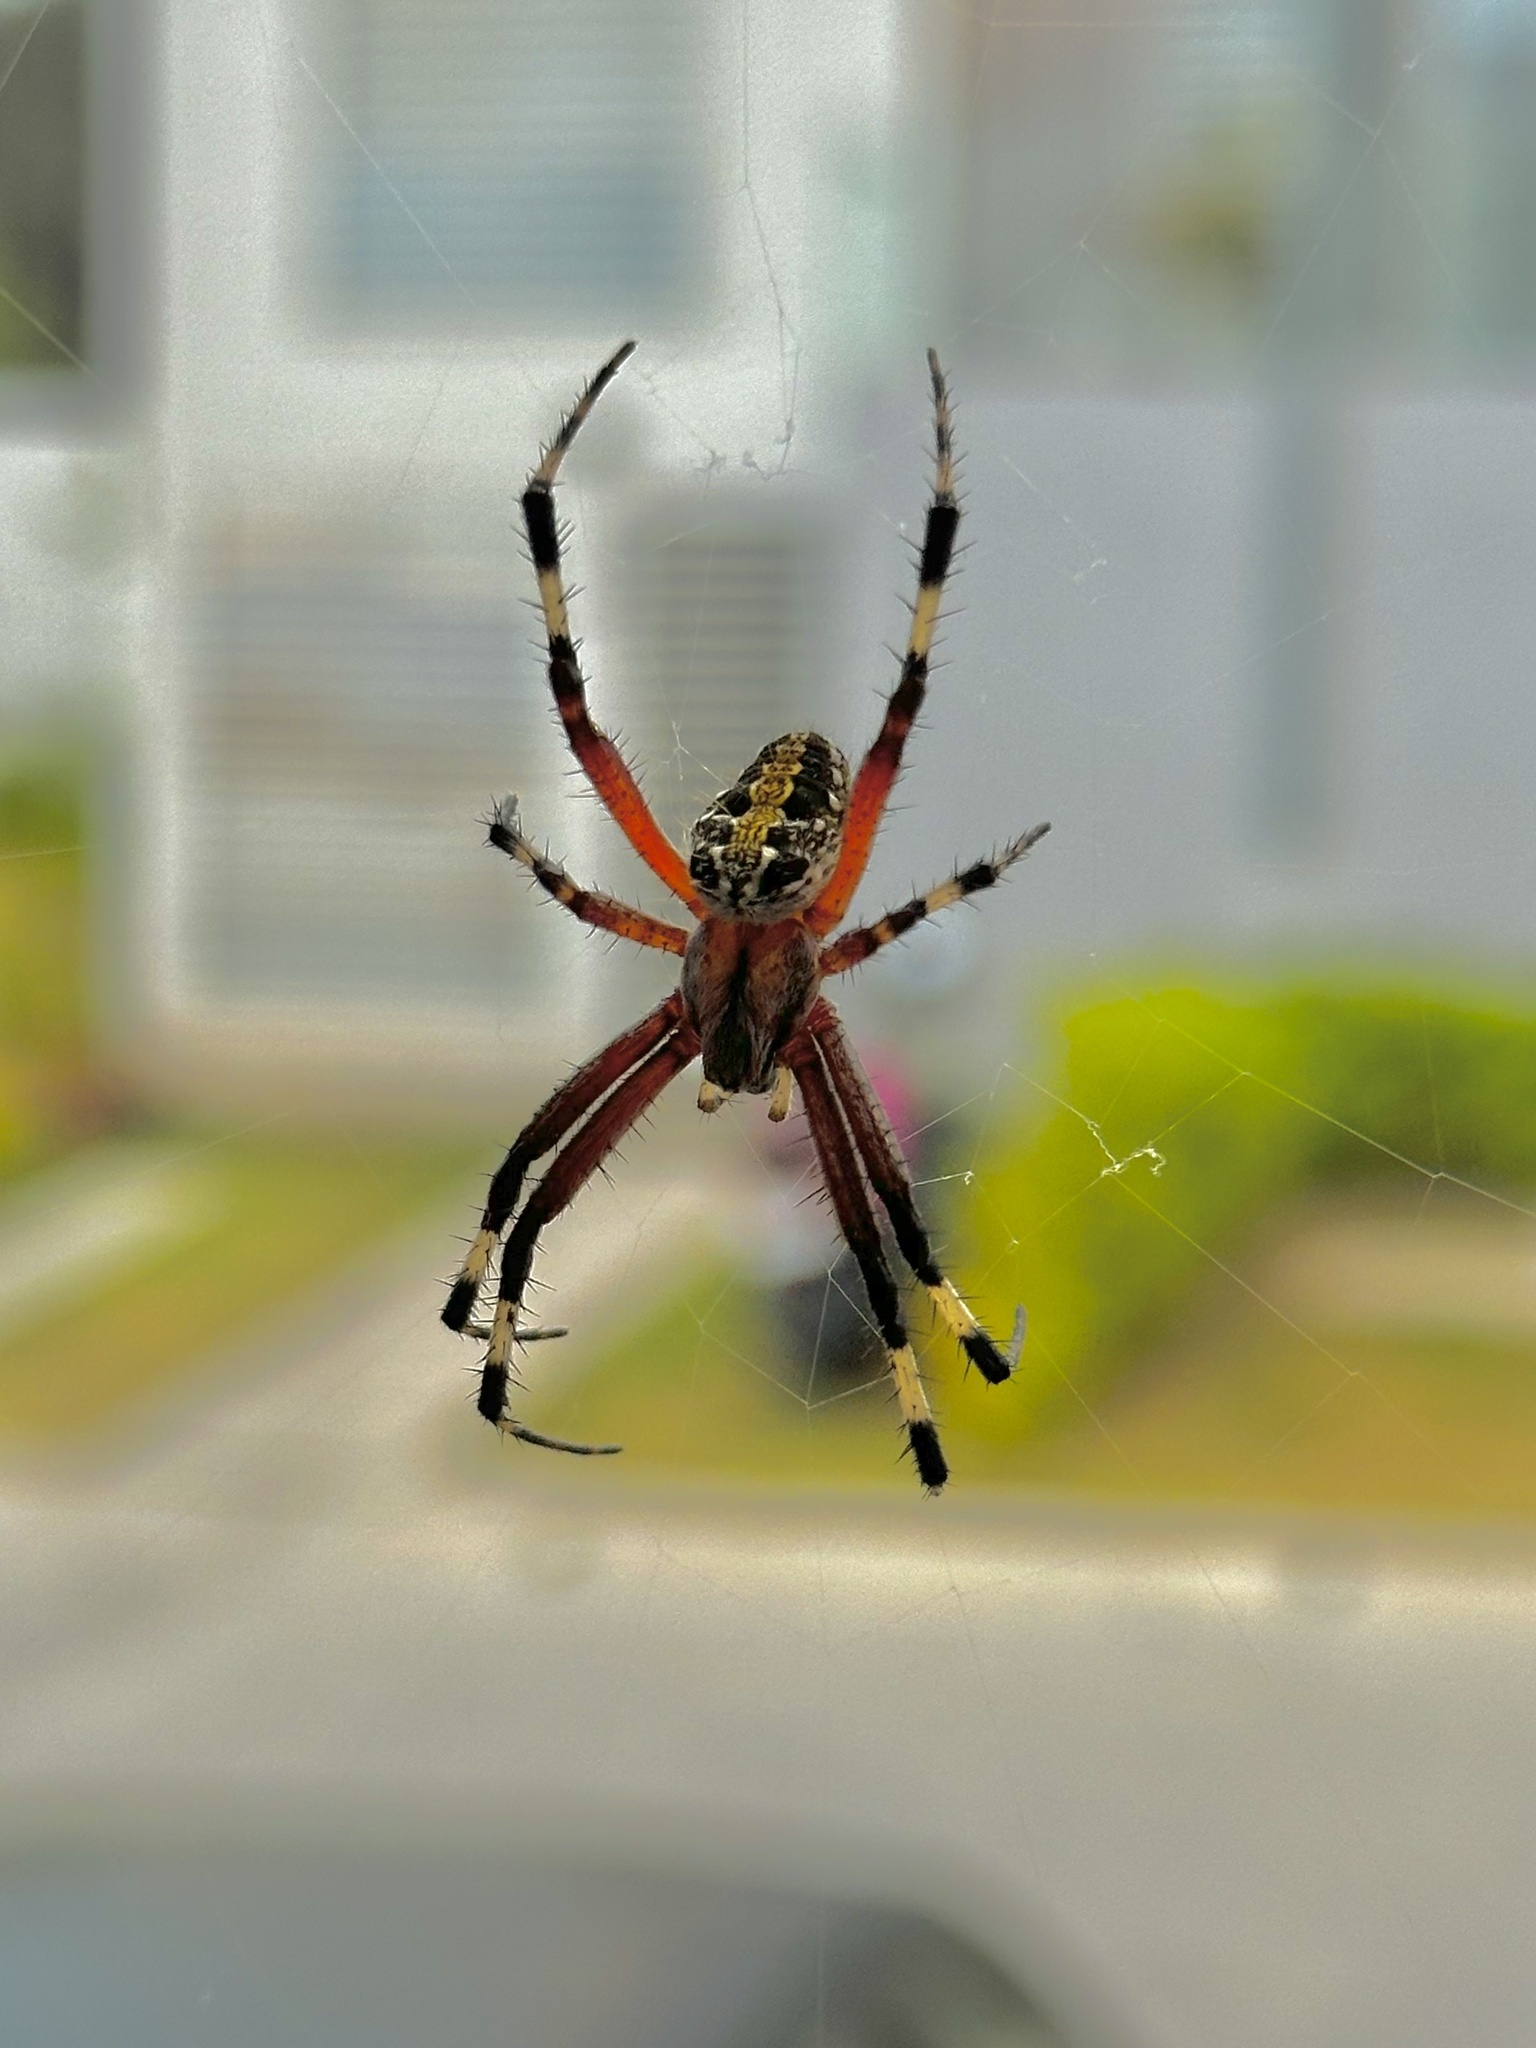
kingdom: Animalia
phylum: Arthropoda
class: Arachnida
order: Araneae
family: Araneidae
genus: Neoscona
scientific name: Neoscona oaxacensis
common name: Orb weavers
